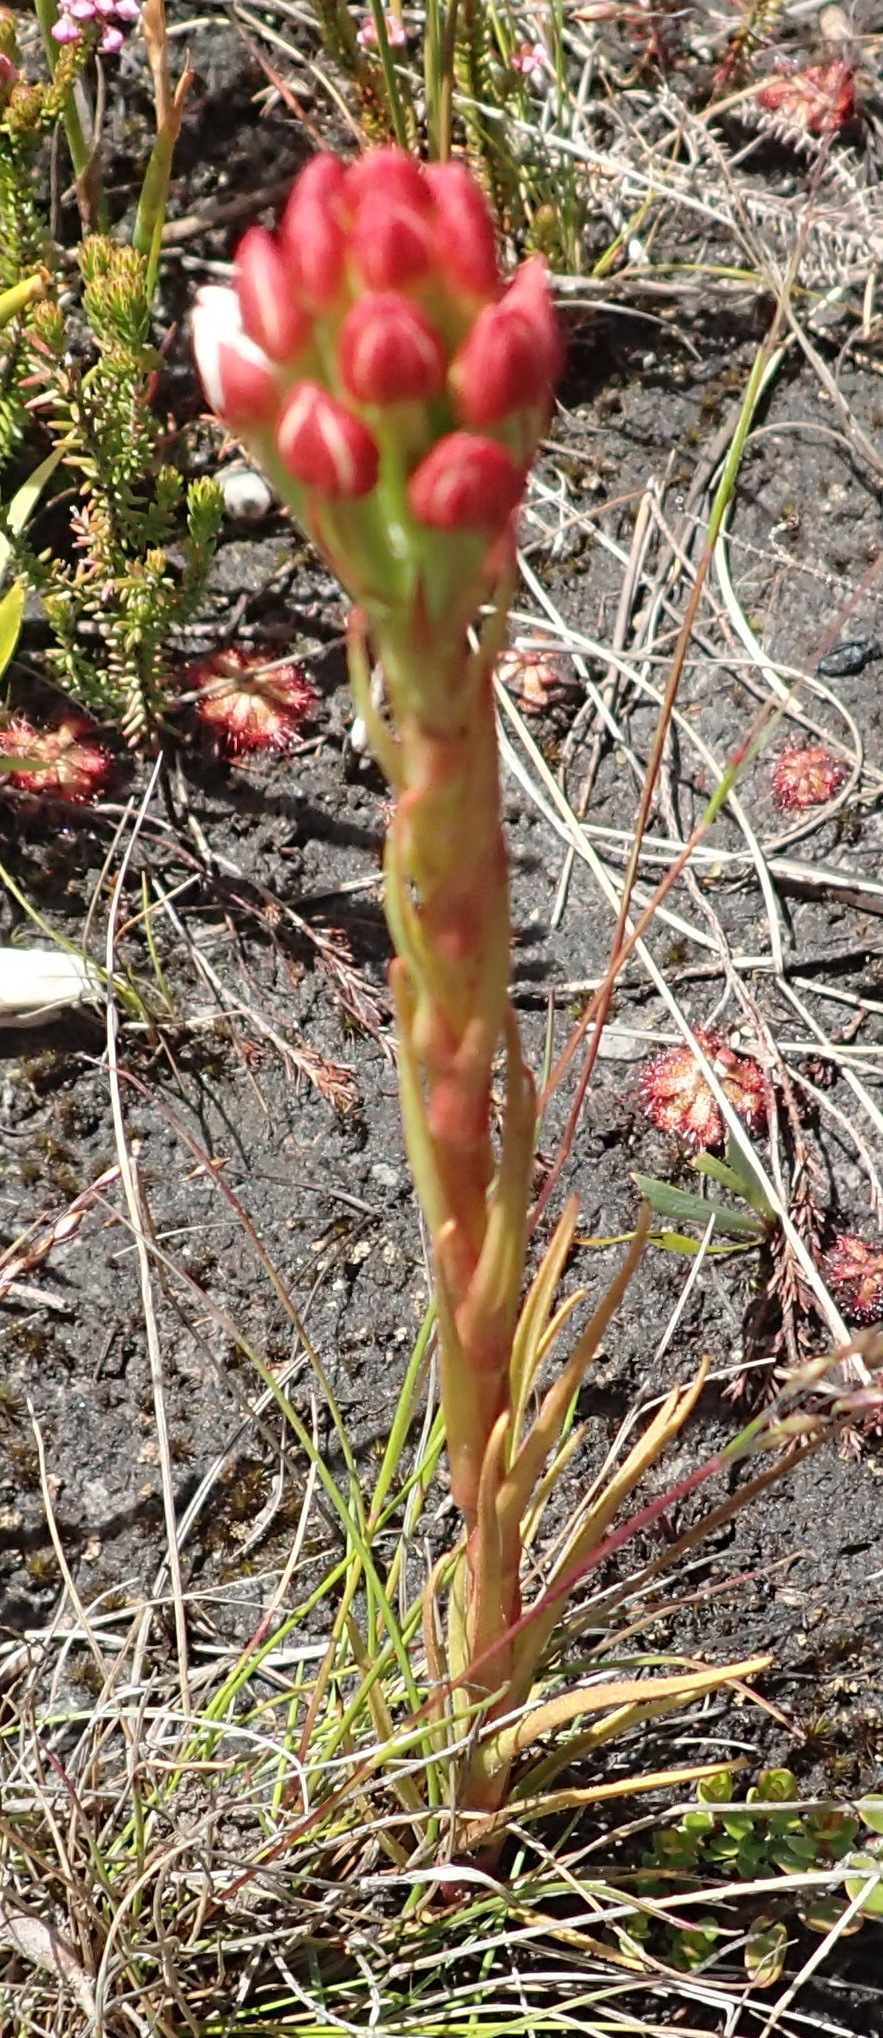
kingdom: Plantae
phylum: Tracheophyta
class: Liliopsida
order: Asparagales
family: Orchidaceae
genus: Ceratandra
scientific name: Ceratandra globosa
